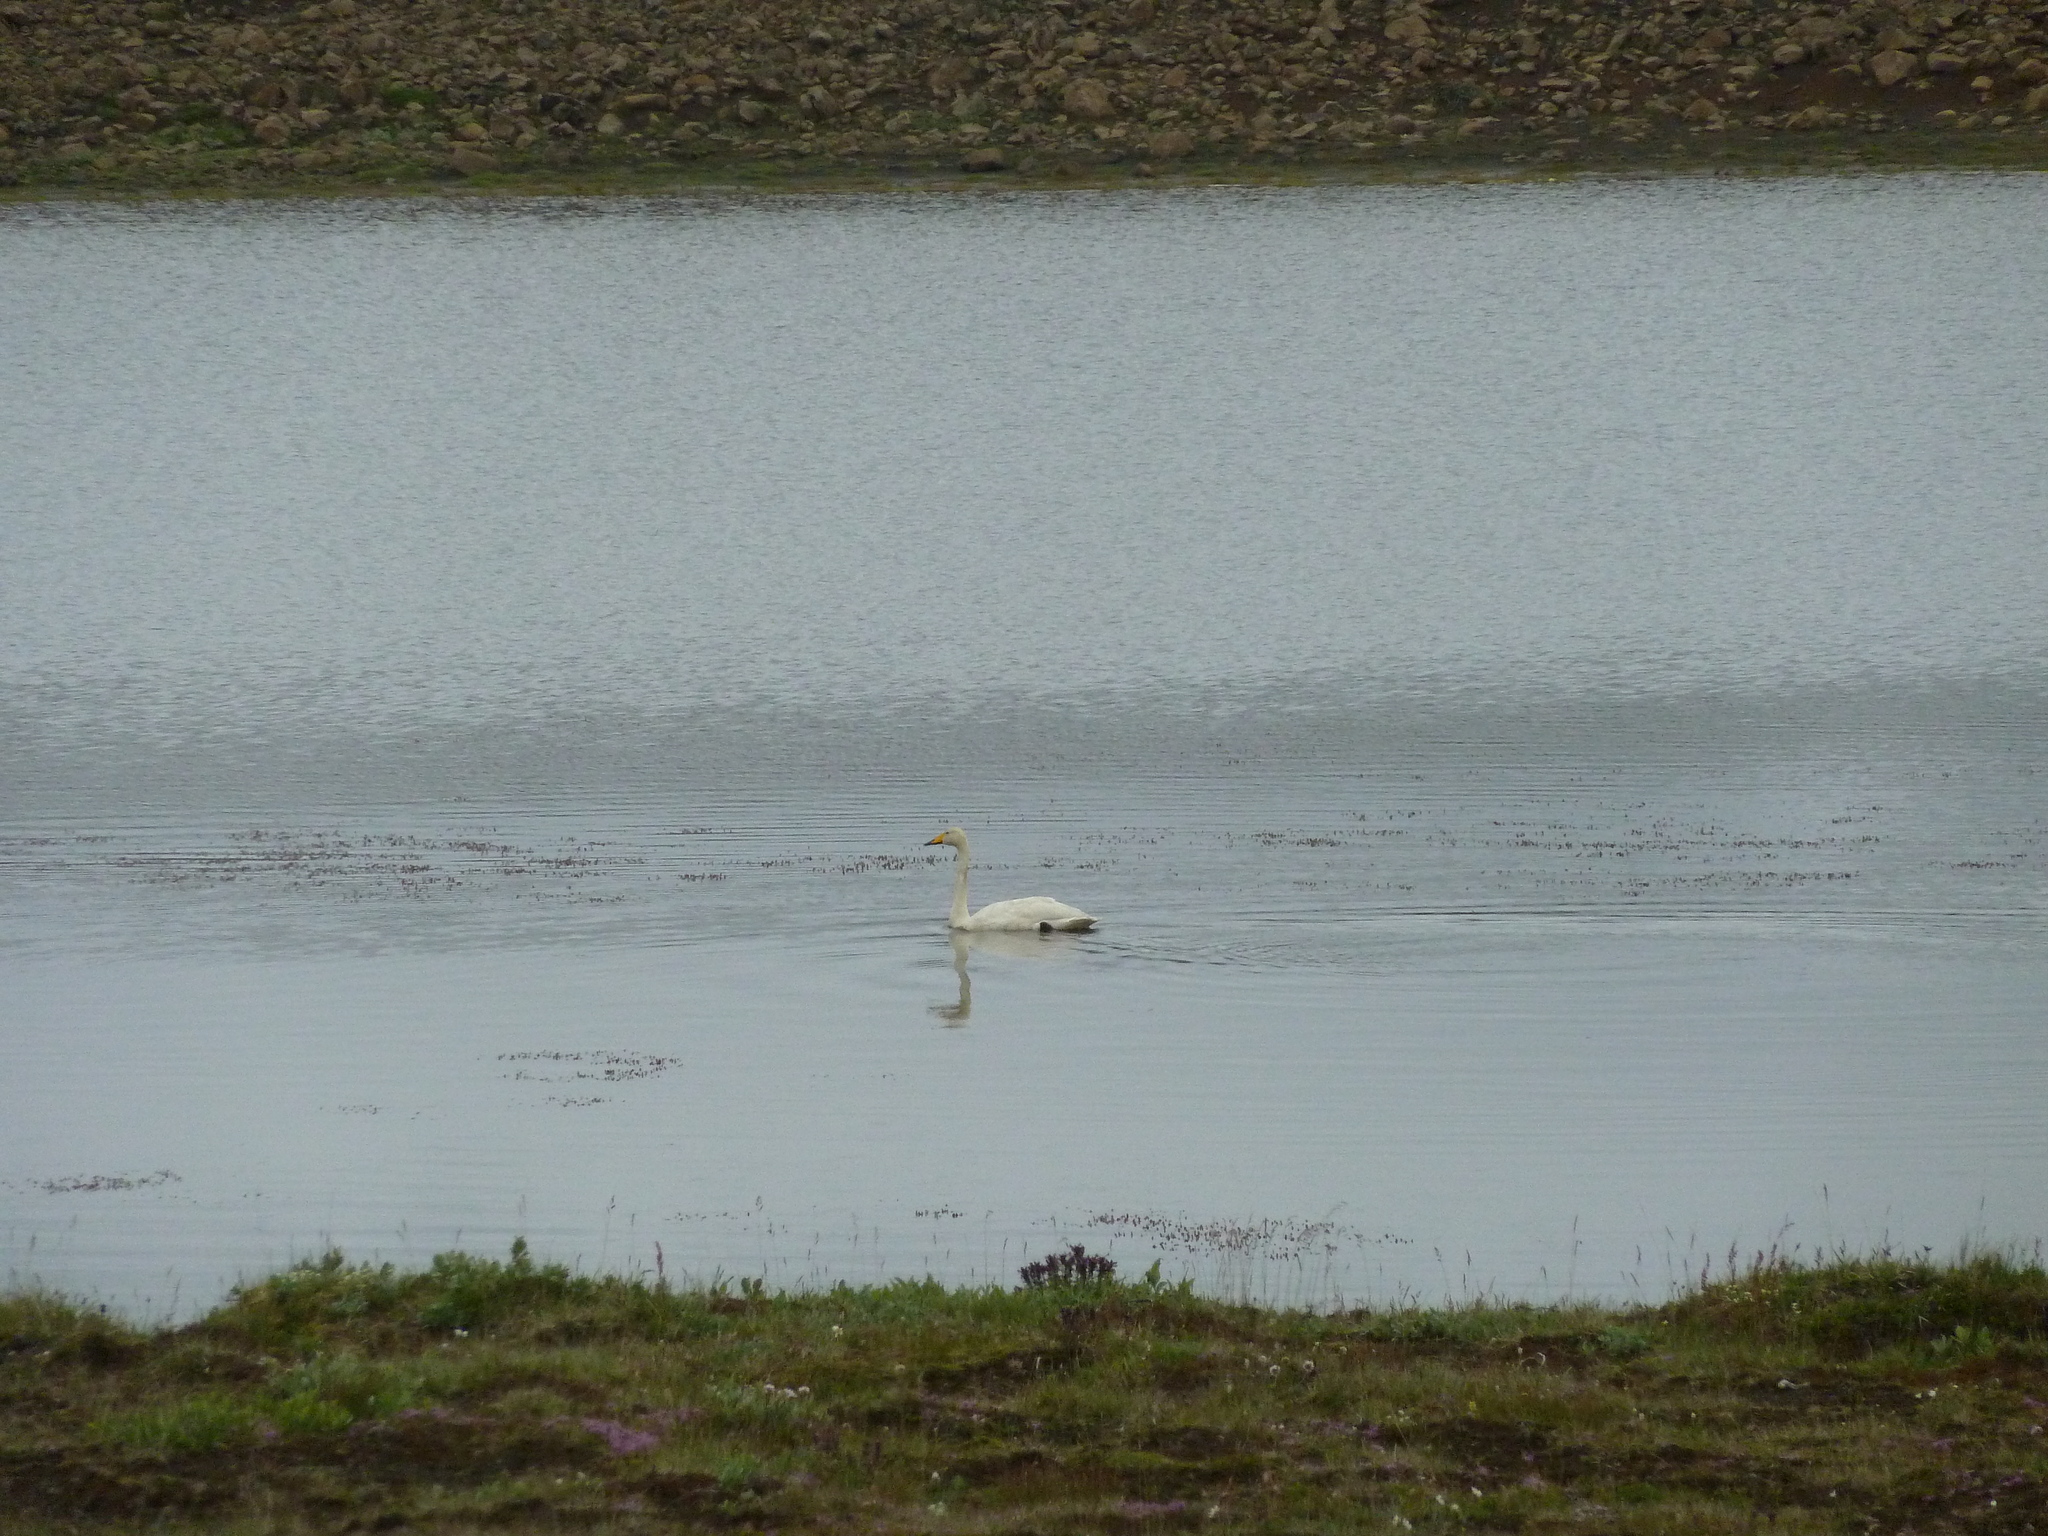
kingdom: Animalia
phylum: Chordata
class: Aves
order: Anseriformes
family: Anatidae
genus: Cygnus
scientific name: Cygnus cygnus
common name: Whooper swan
